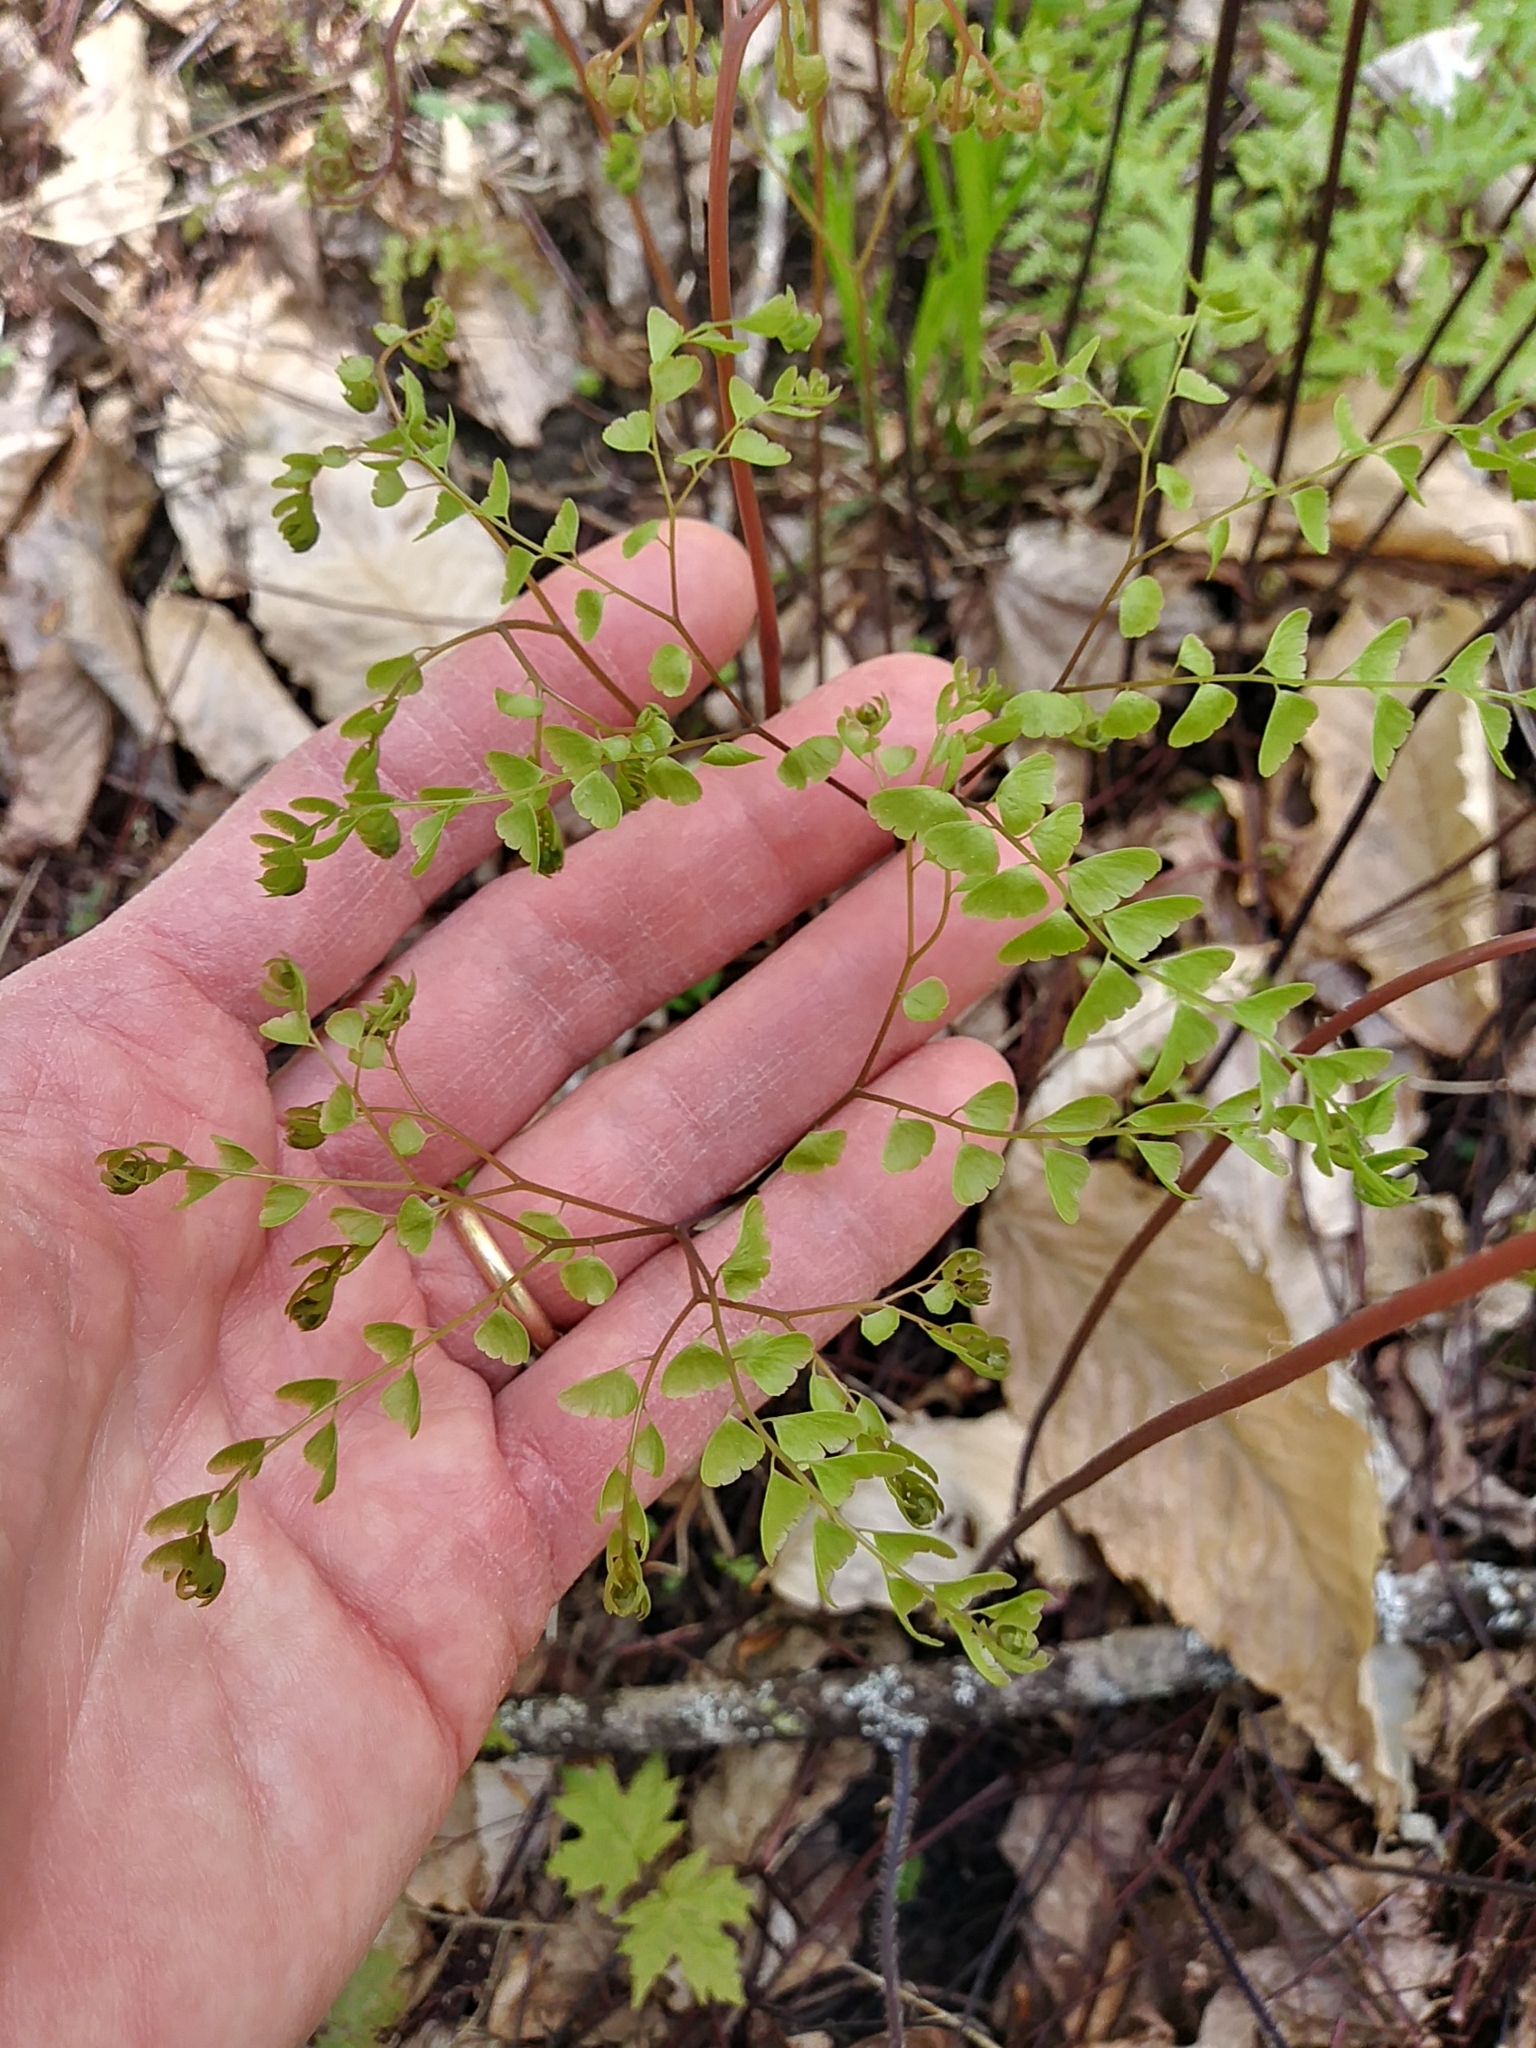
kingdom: Plantae
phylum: Tracheophyta
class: Polypodiopsida
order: Polypodiales
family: Pteridaceae
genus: Adiantum
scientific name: Adiantum pedatum
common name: Five-finger fern
